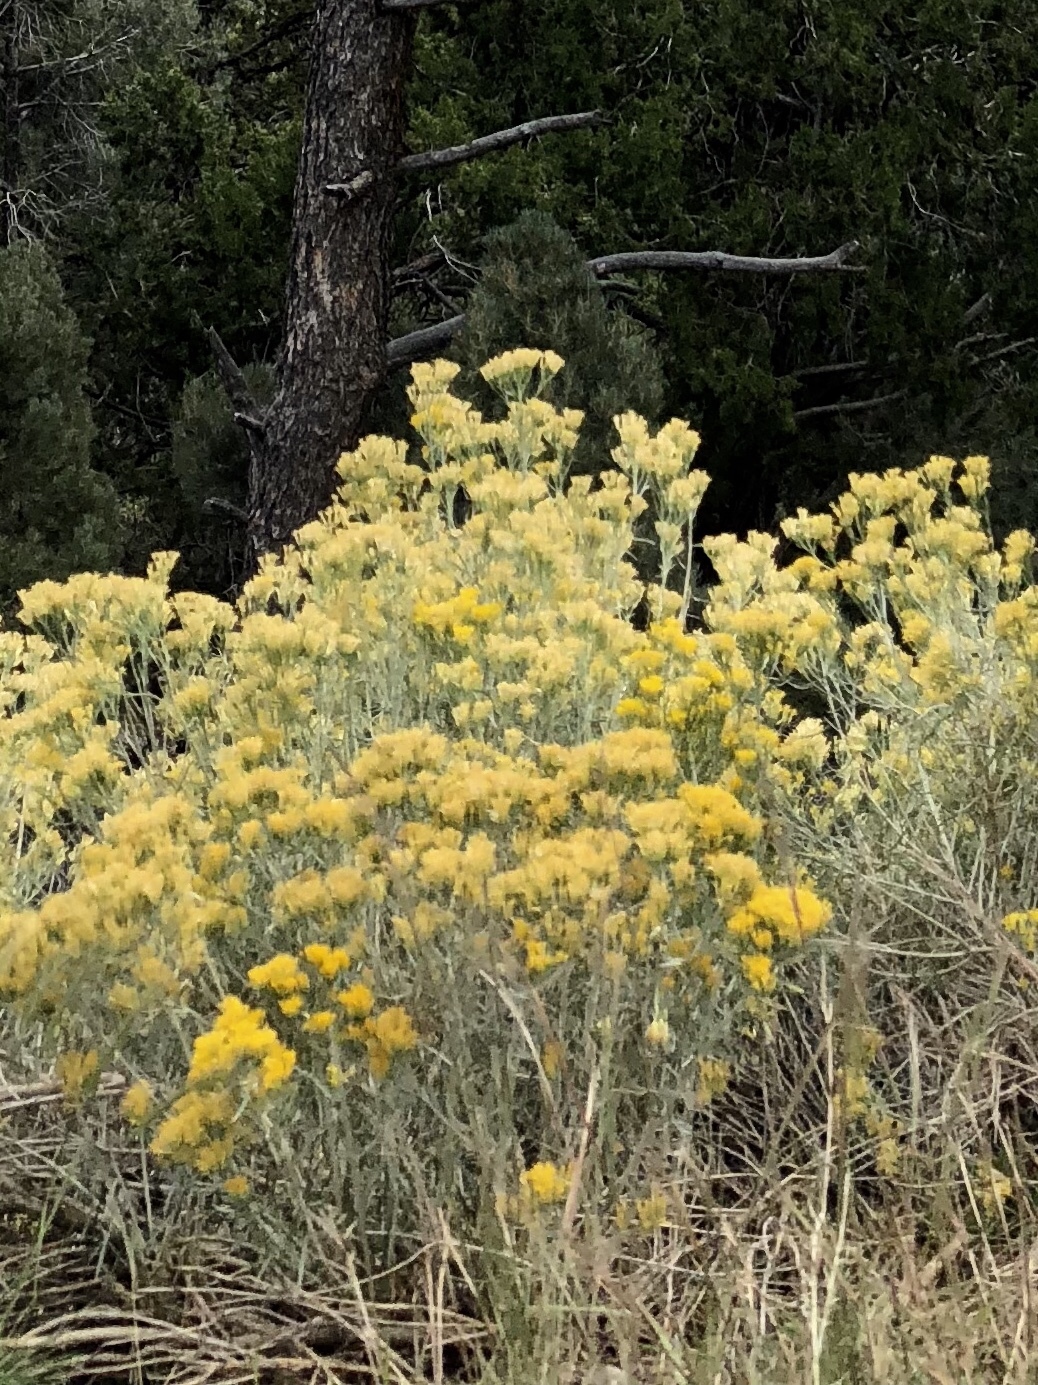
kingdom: Plantae
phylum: Tracheophyta
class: Magnoliopsida
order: Asterales
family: Asteraceae
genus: Ericameria
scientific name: Ericameria nauseosa
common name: Rubber rabbitbrush
